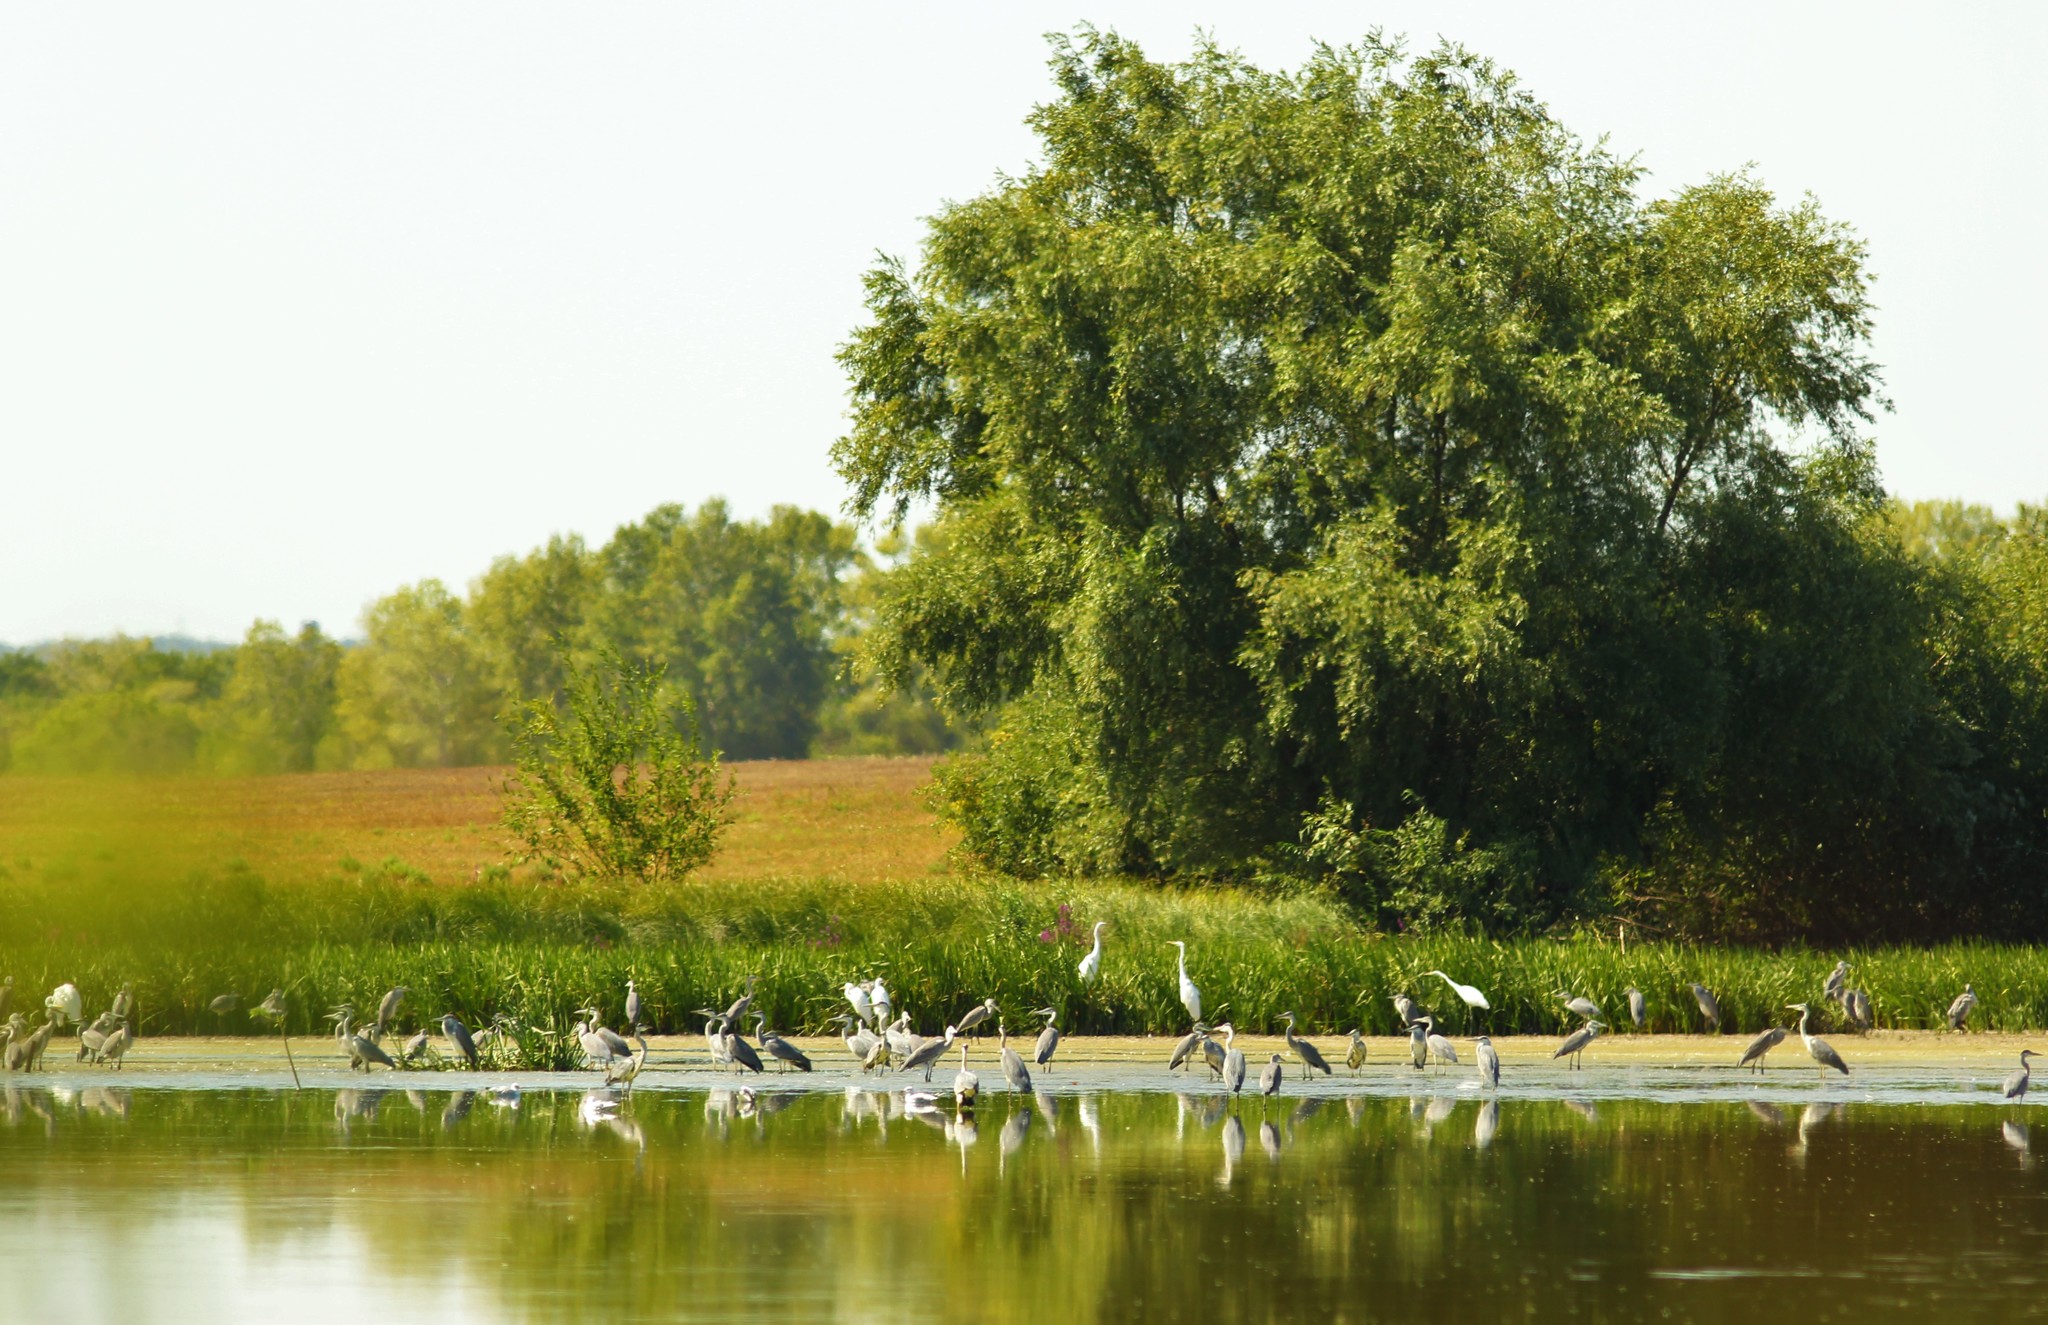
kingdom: Animalia
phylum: Chordata
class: Aves
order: Pelecaniformes
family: Ardeidae
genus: Ardea
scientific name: Ardea cinerea
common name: Grey heron
